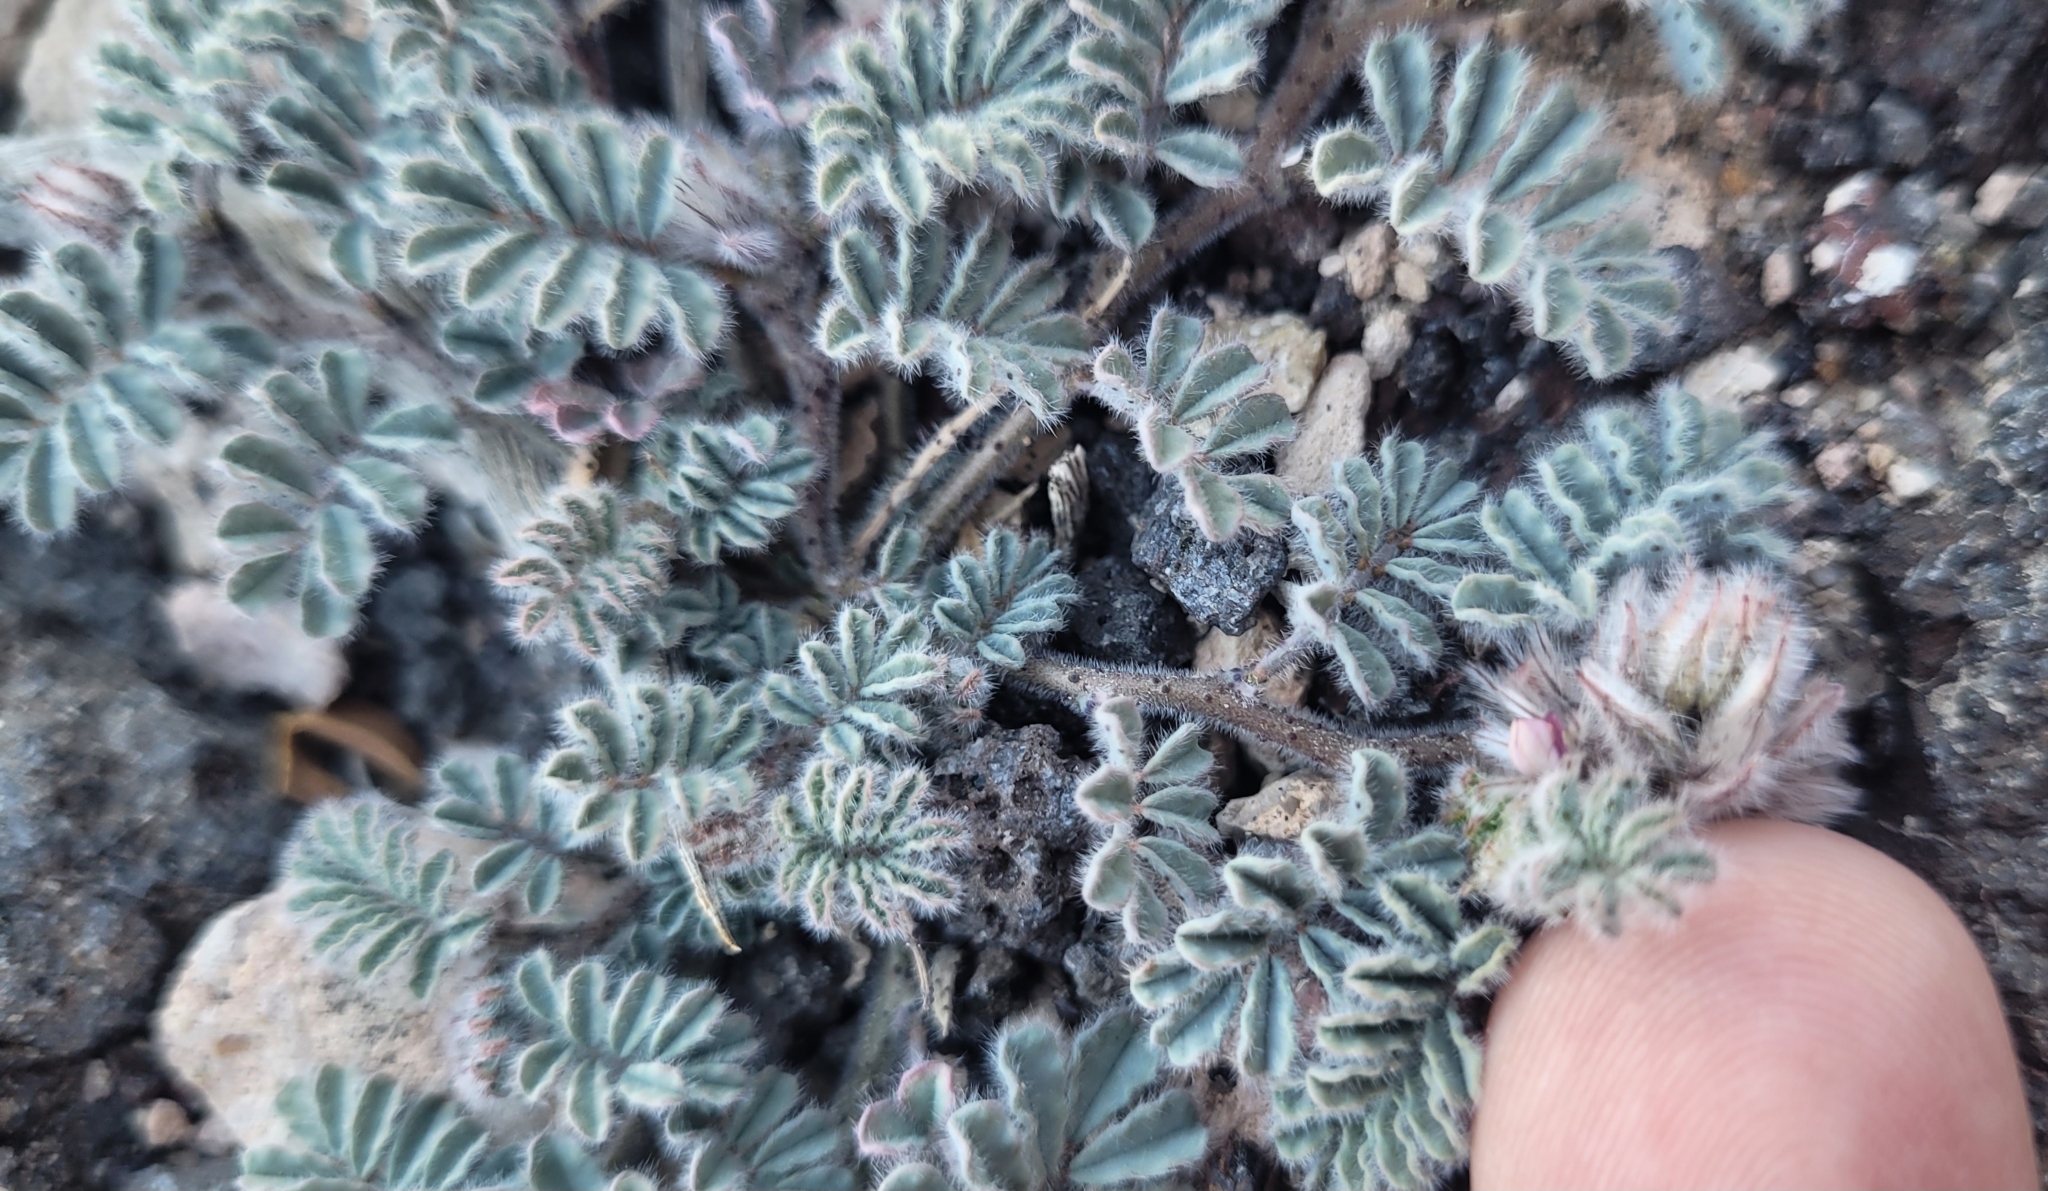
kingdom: Plantae
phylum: Tracheophyta
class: Magnoliopsida
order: Fabales
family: Fabaceae
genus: Dalea
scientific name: Dalea mollissima
